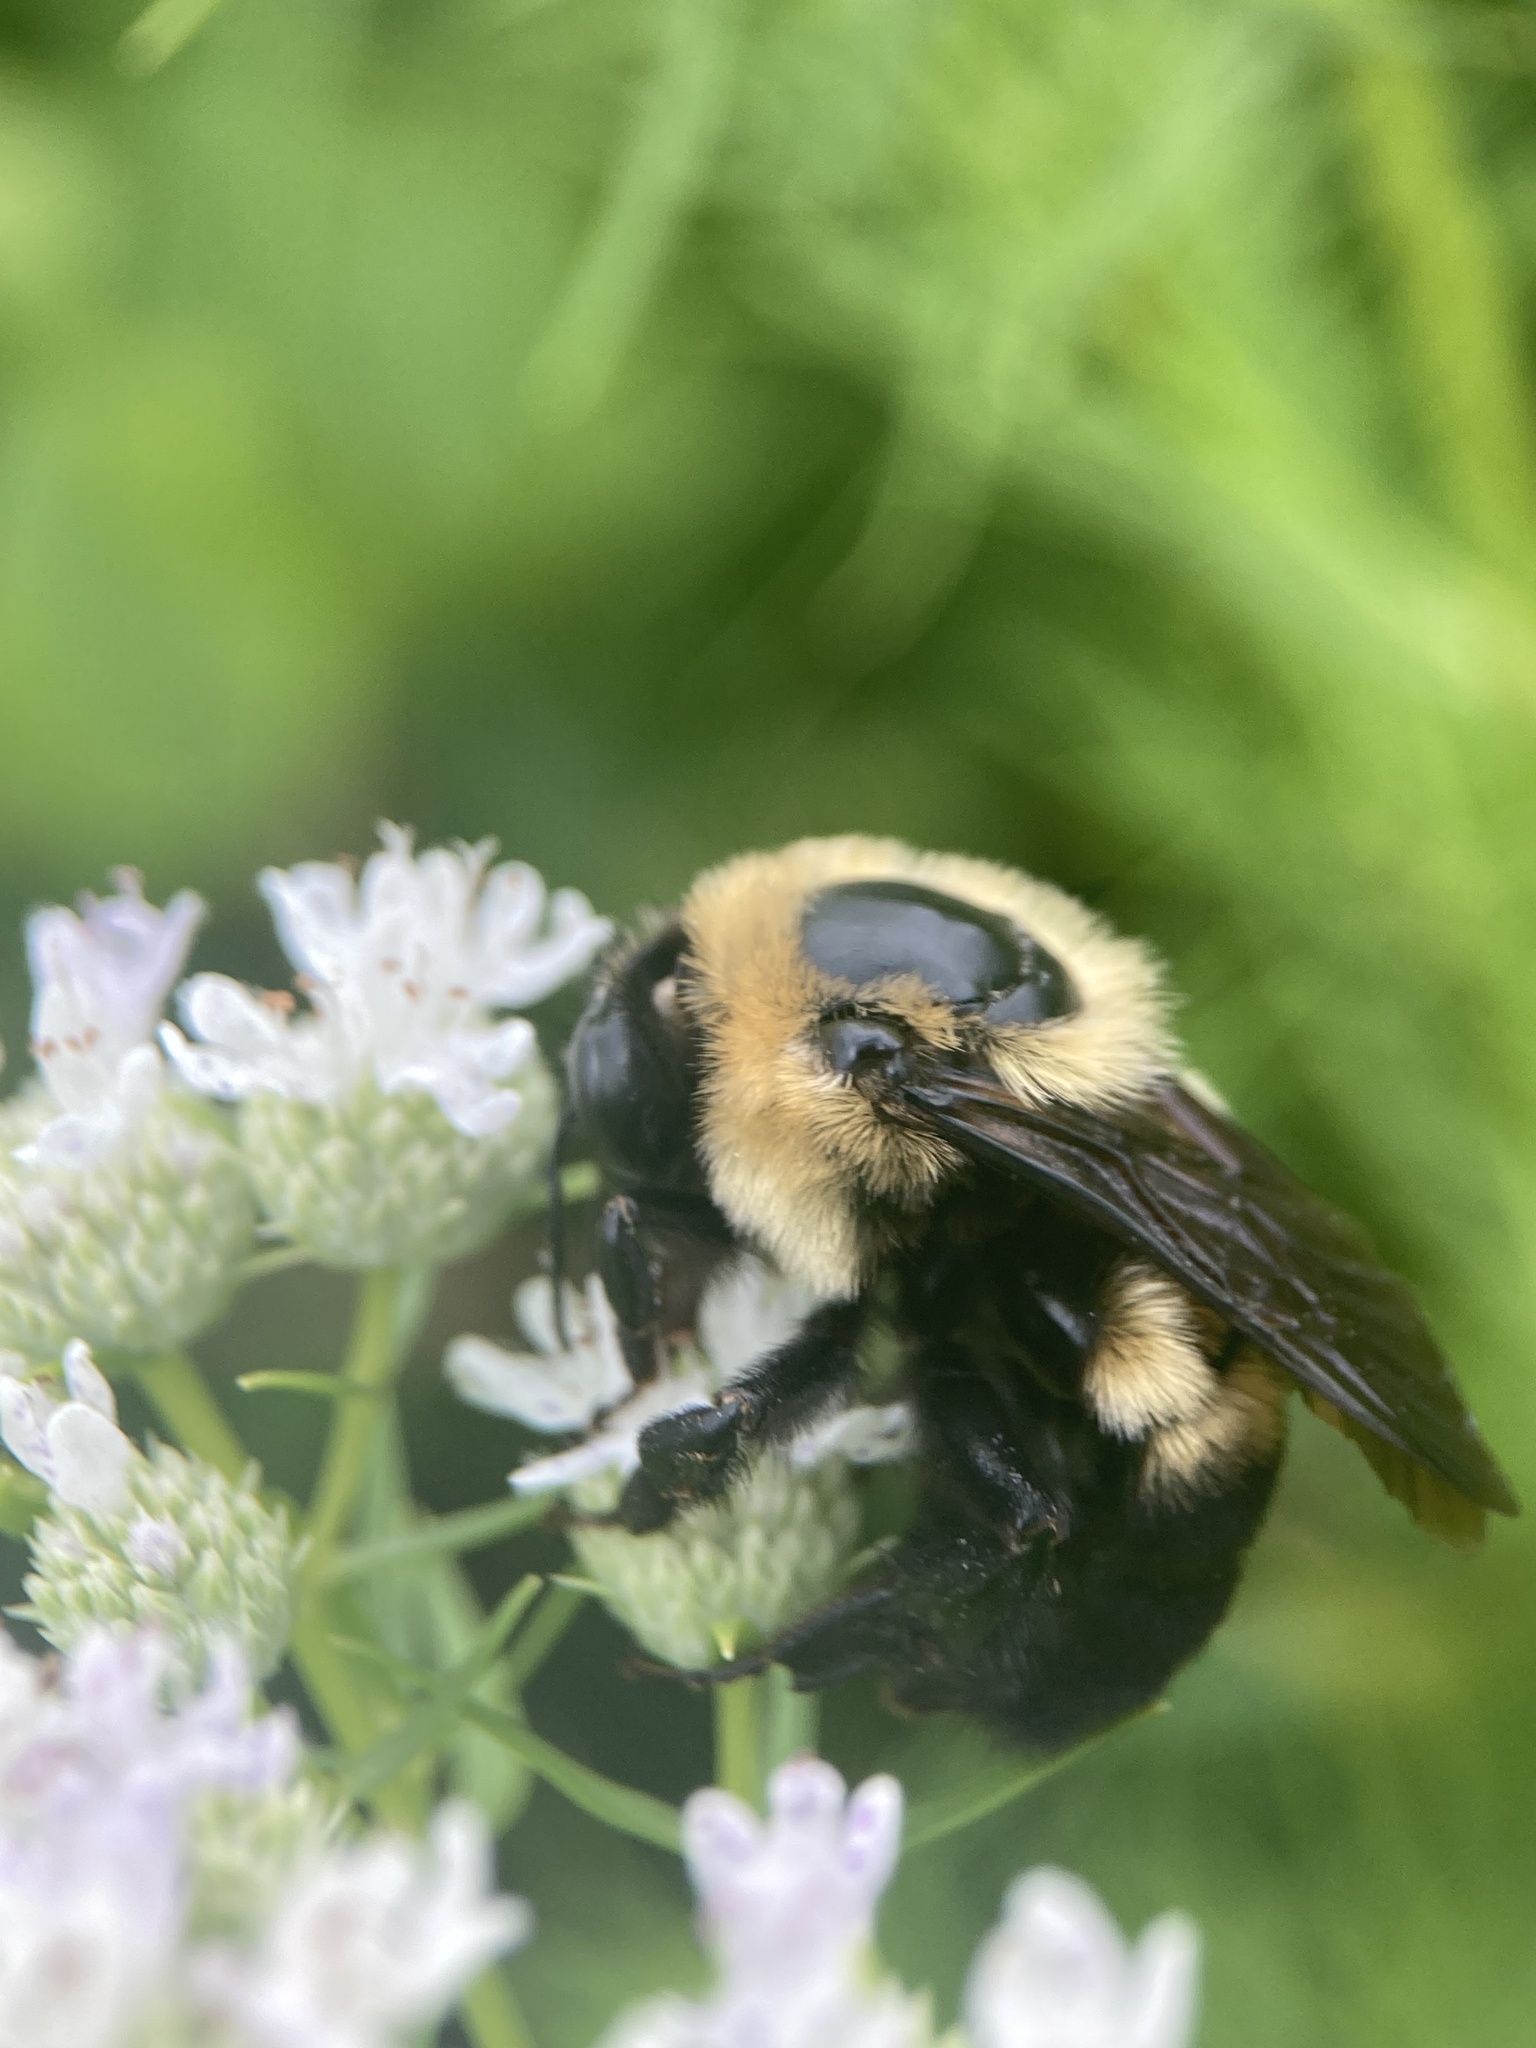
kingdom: Animalia
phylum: Arthropoda
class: Insecta
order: Hymenoptera
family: Apidae
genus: Bombus
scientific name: Bombus griseocollis
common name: Brown-belted bumble bee
